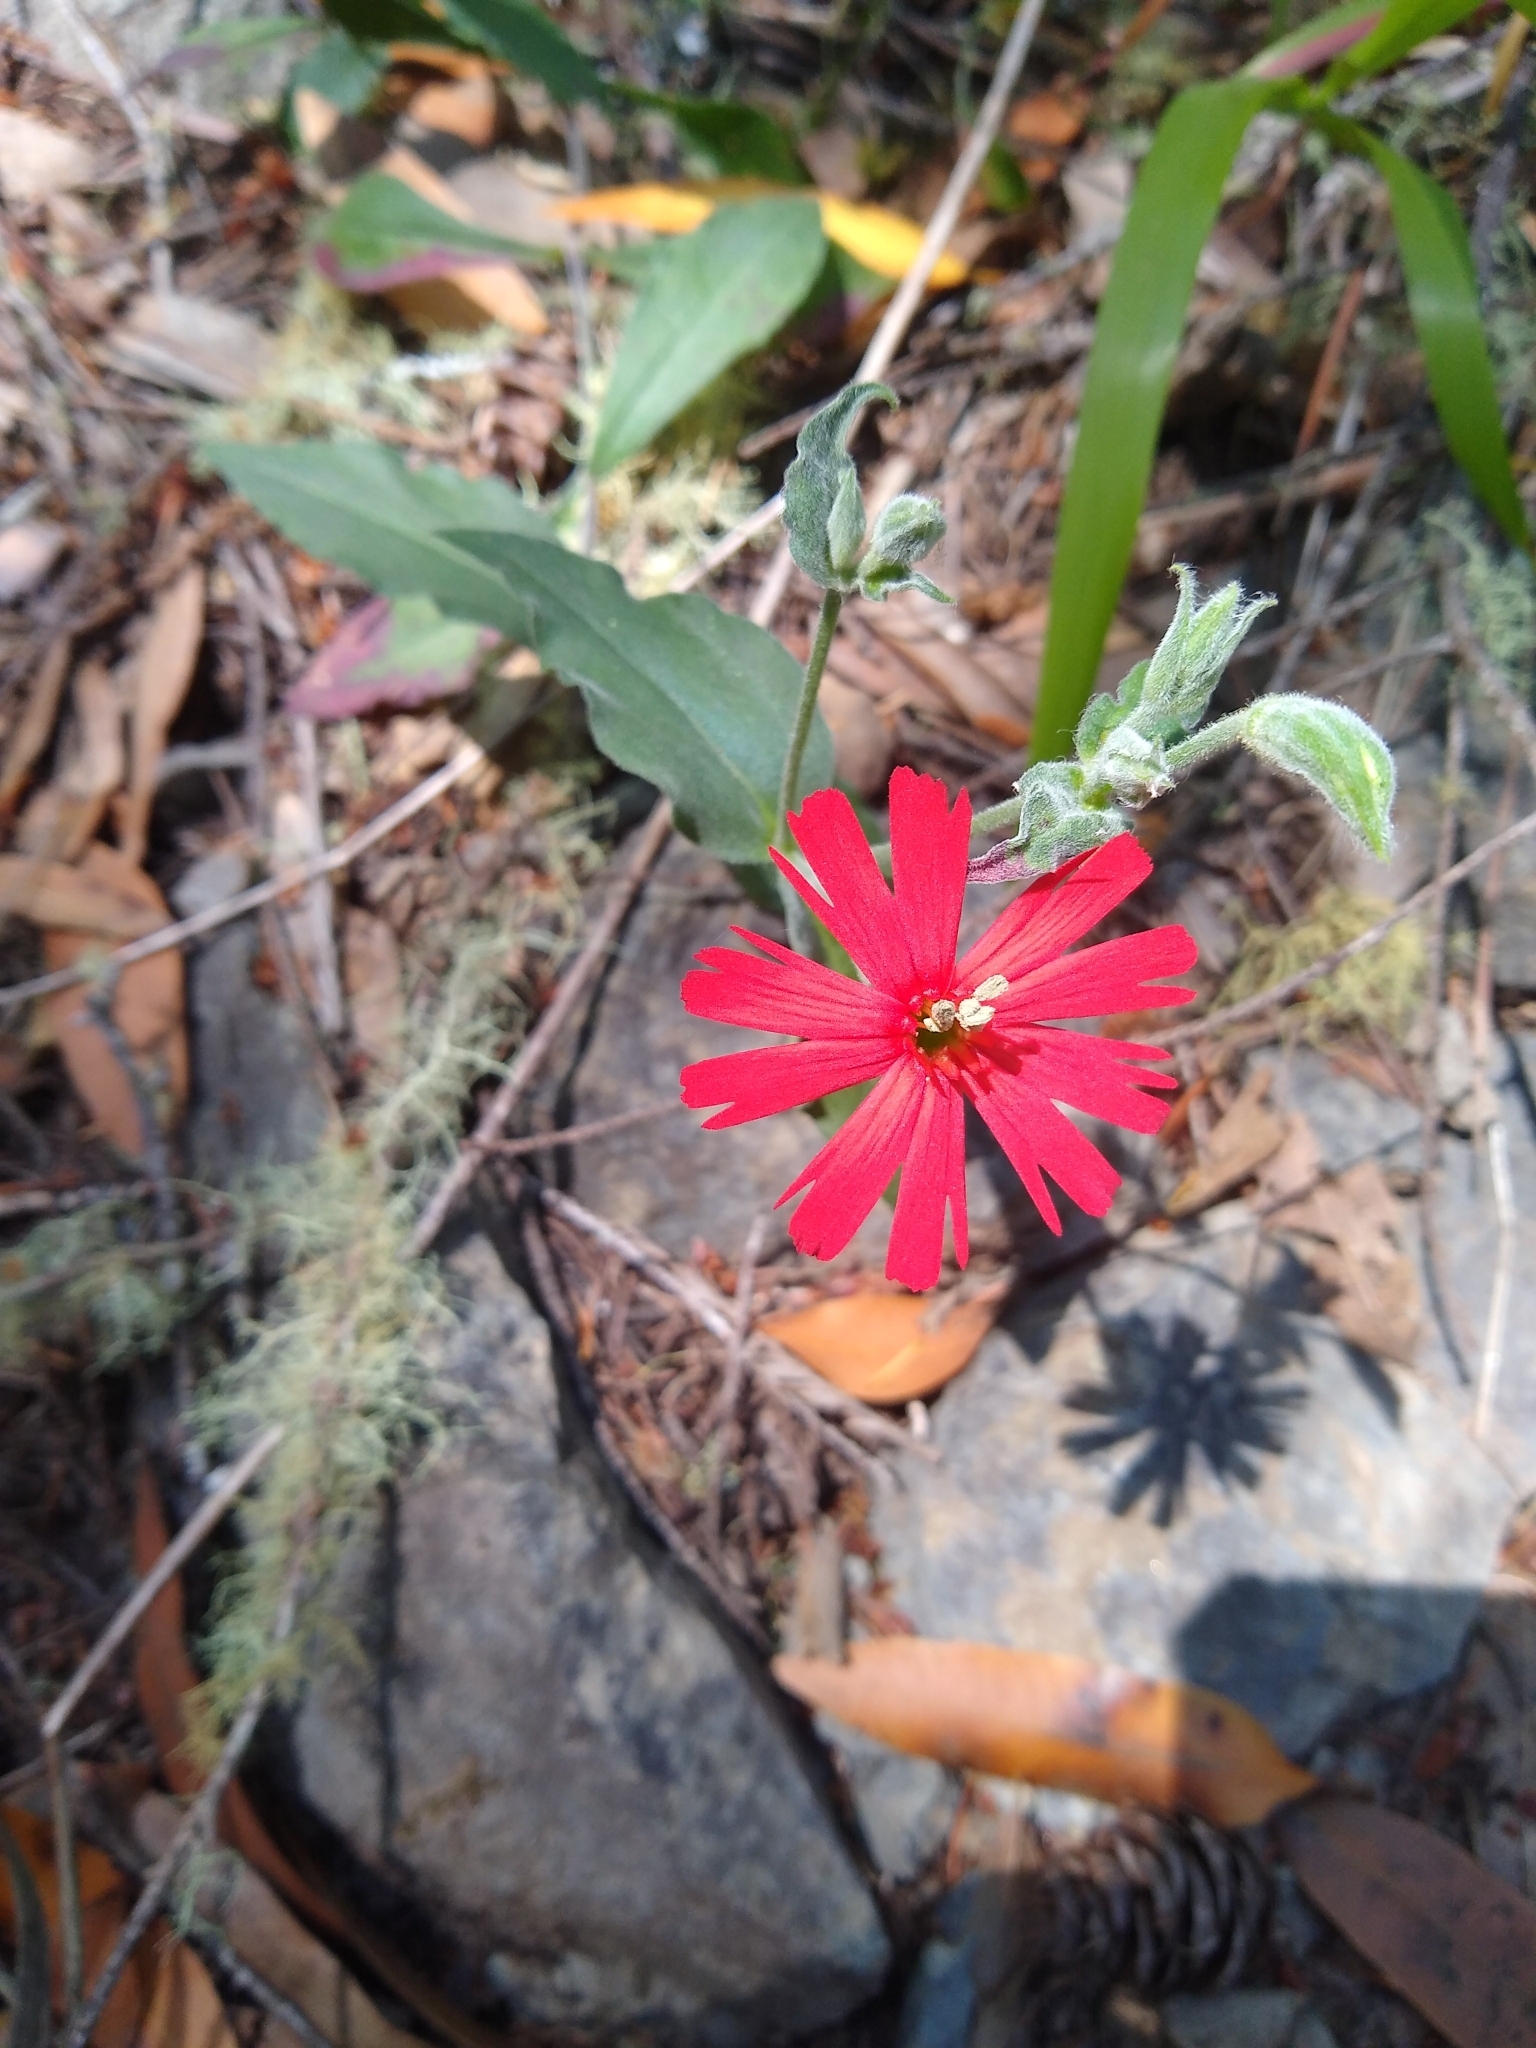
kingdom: Plantae
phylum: Tracheophyta
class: Magnoliopsida
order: Caryophyllales
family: Caryophyllaceae
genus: Silene
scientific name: Silene laciniata
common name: Indian-pink
